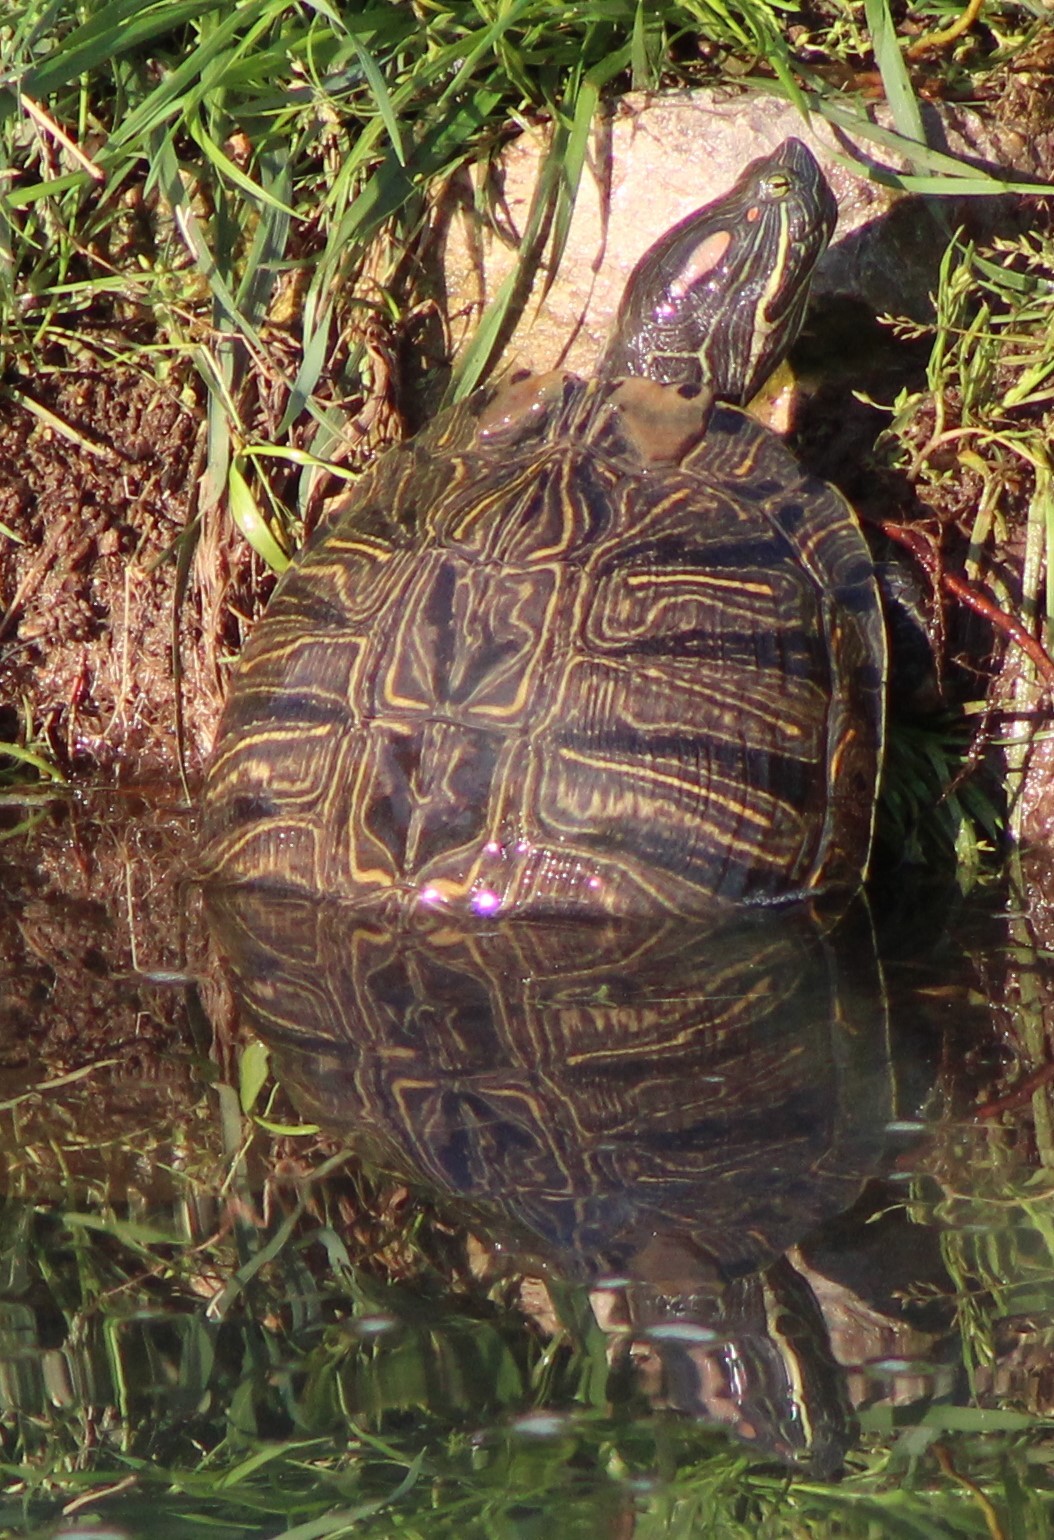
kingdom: Animalia
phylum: Chordata
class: Testudines
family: Emydidae
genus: Trachemys
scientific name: Trachemys scripta
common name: Slider
